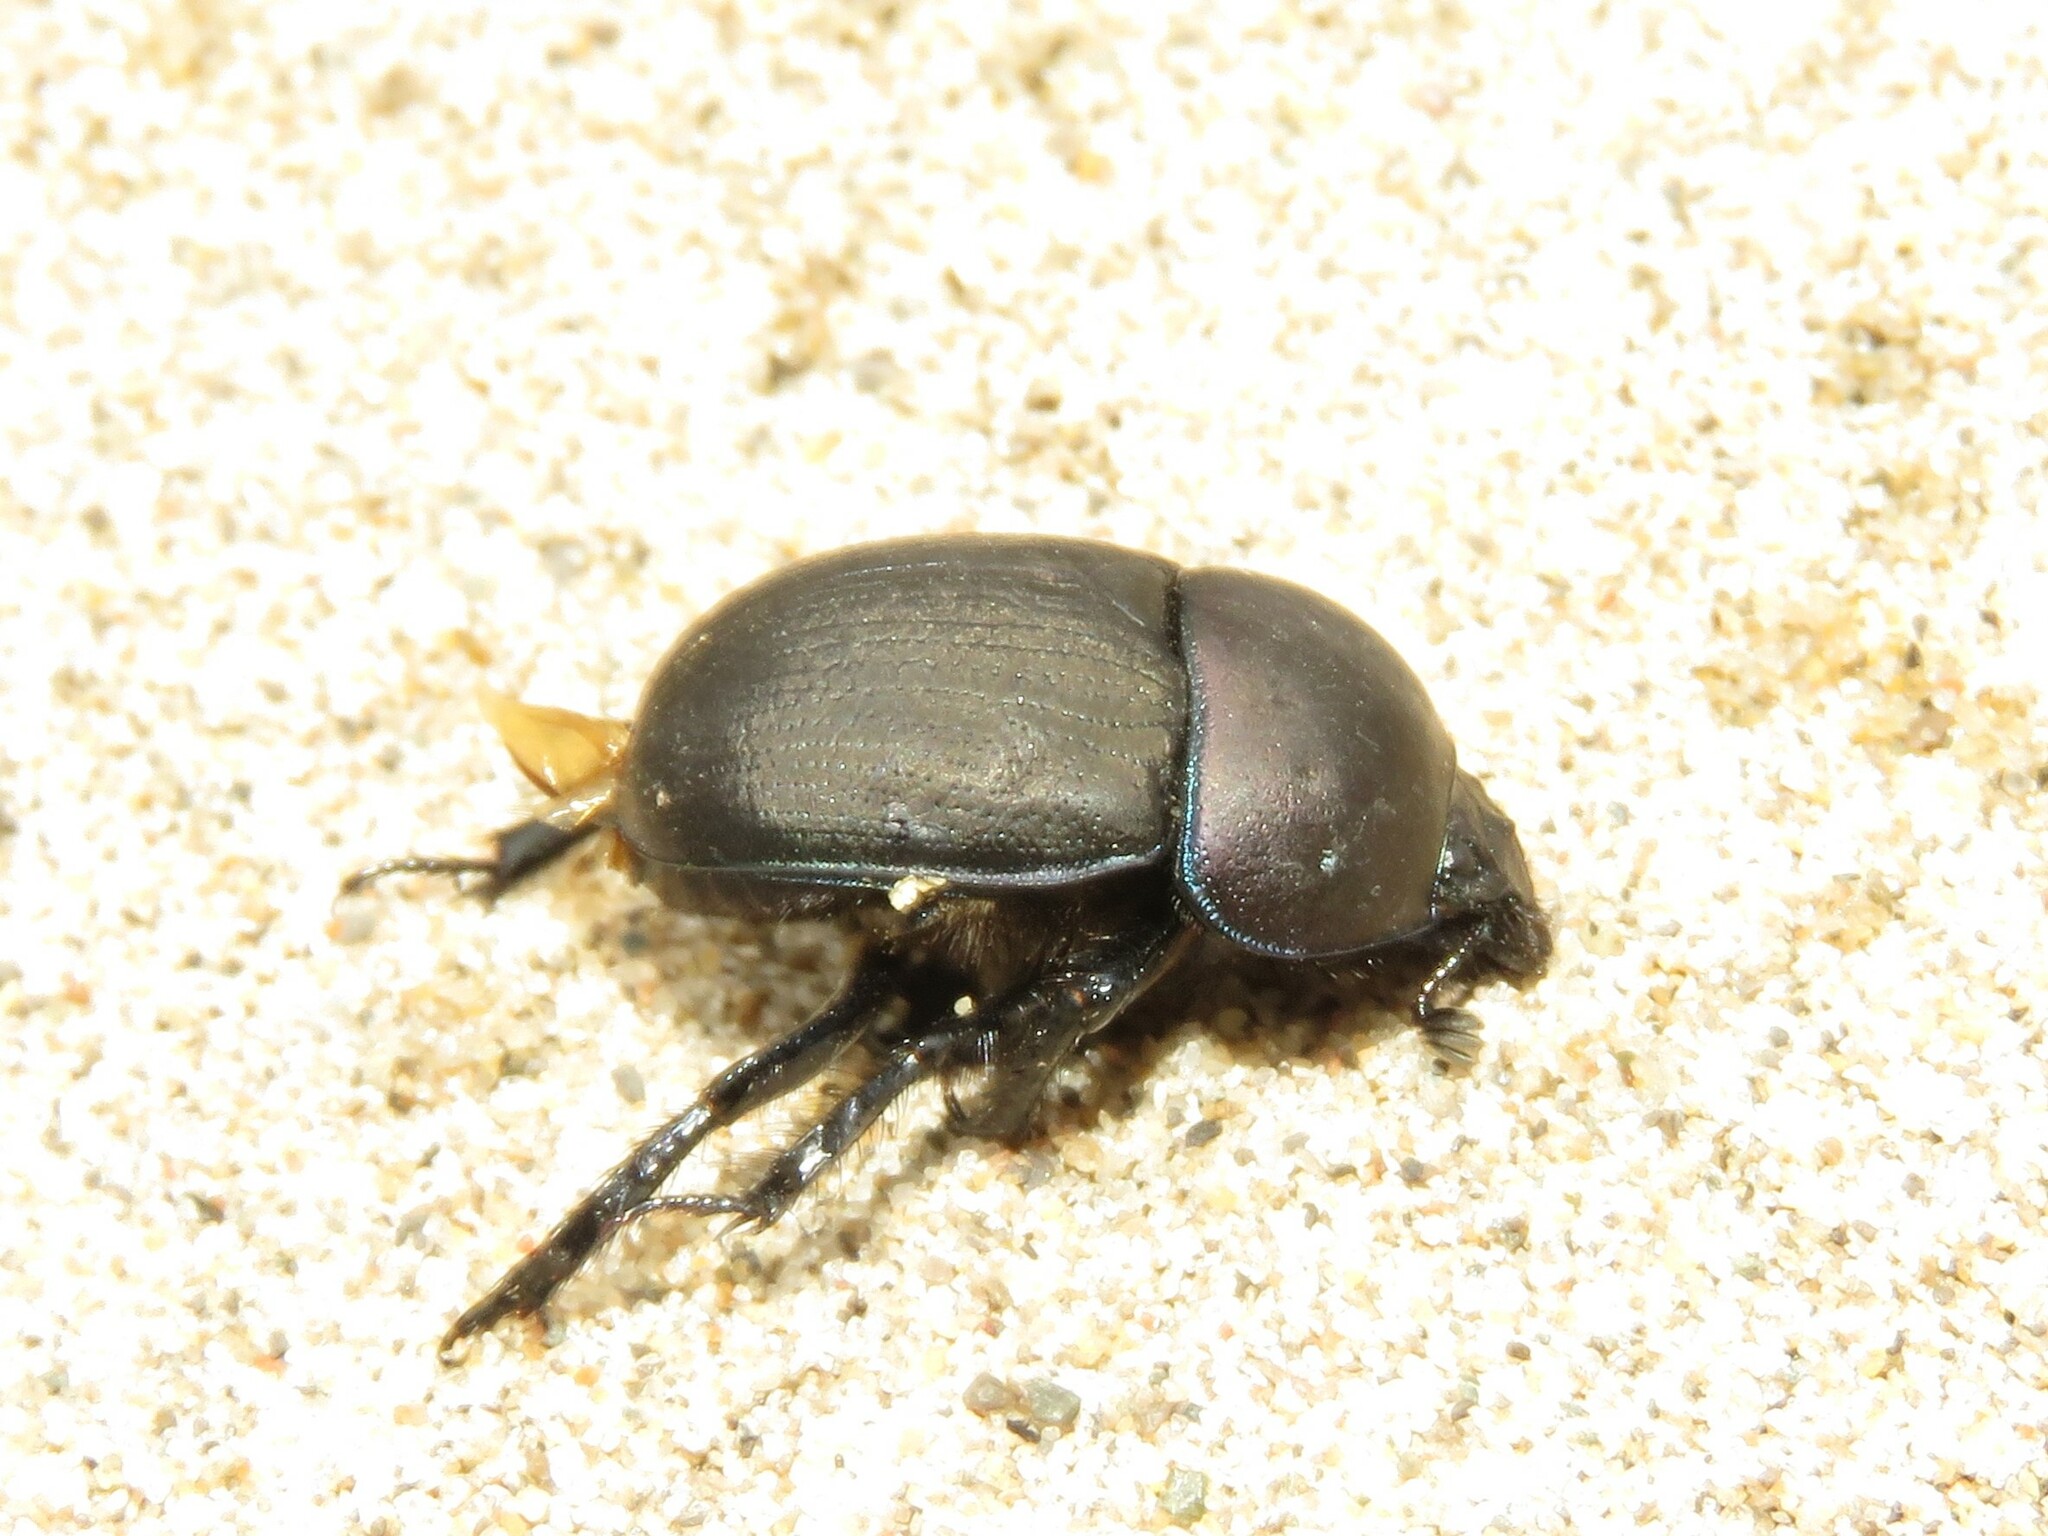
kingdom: Animalia
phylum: Arthropoda
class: Insecta
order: Coleoptera
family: Geotrupidae
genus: Geohowdenius
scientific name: Geohowdenius opacus
